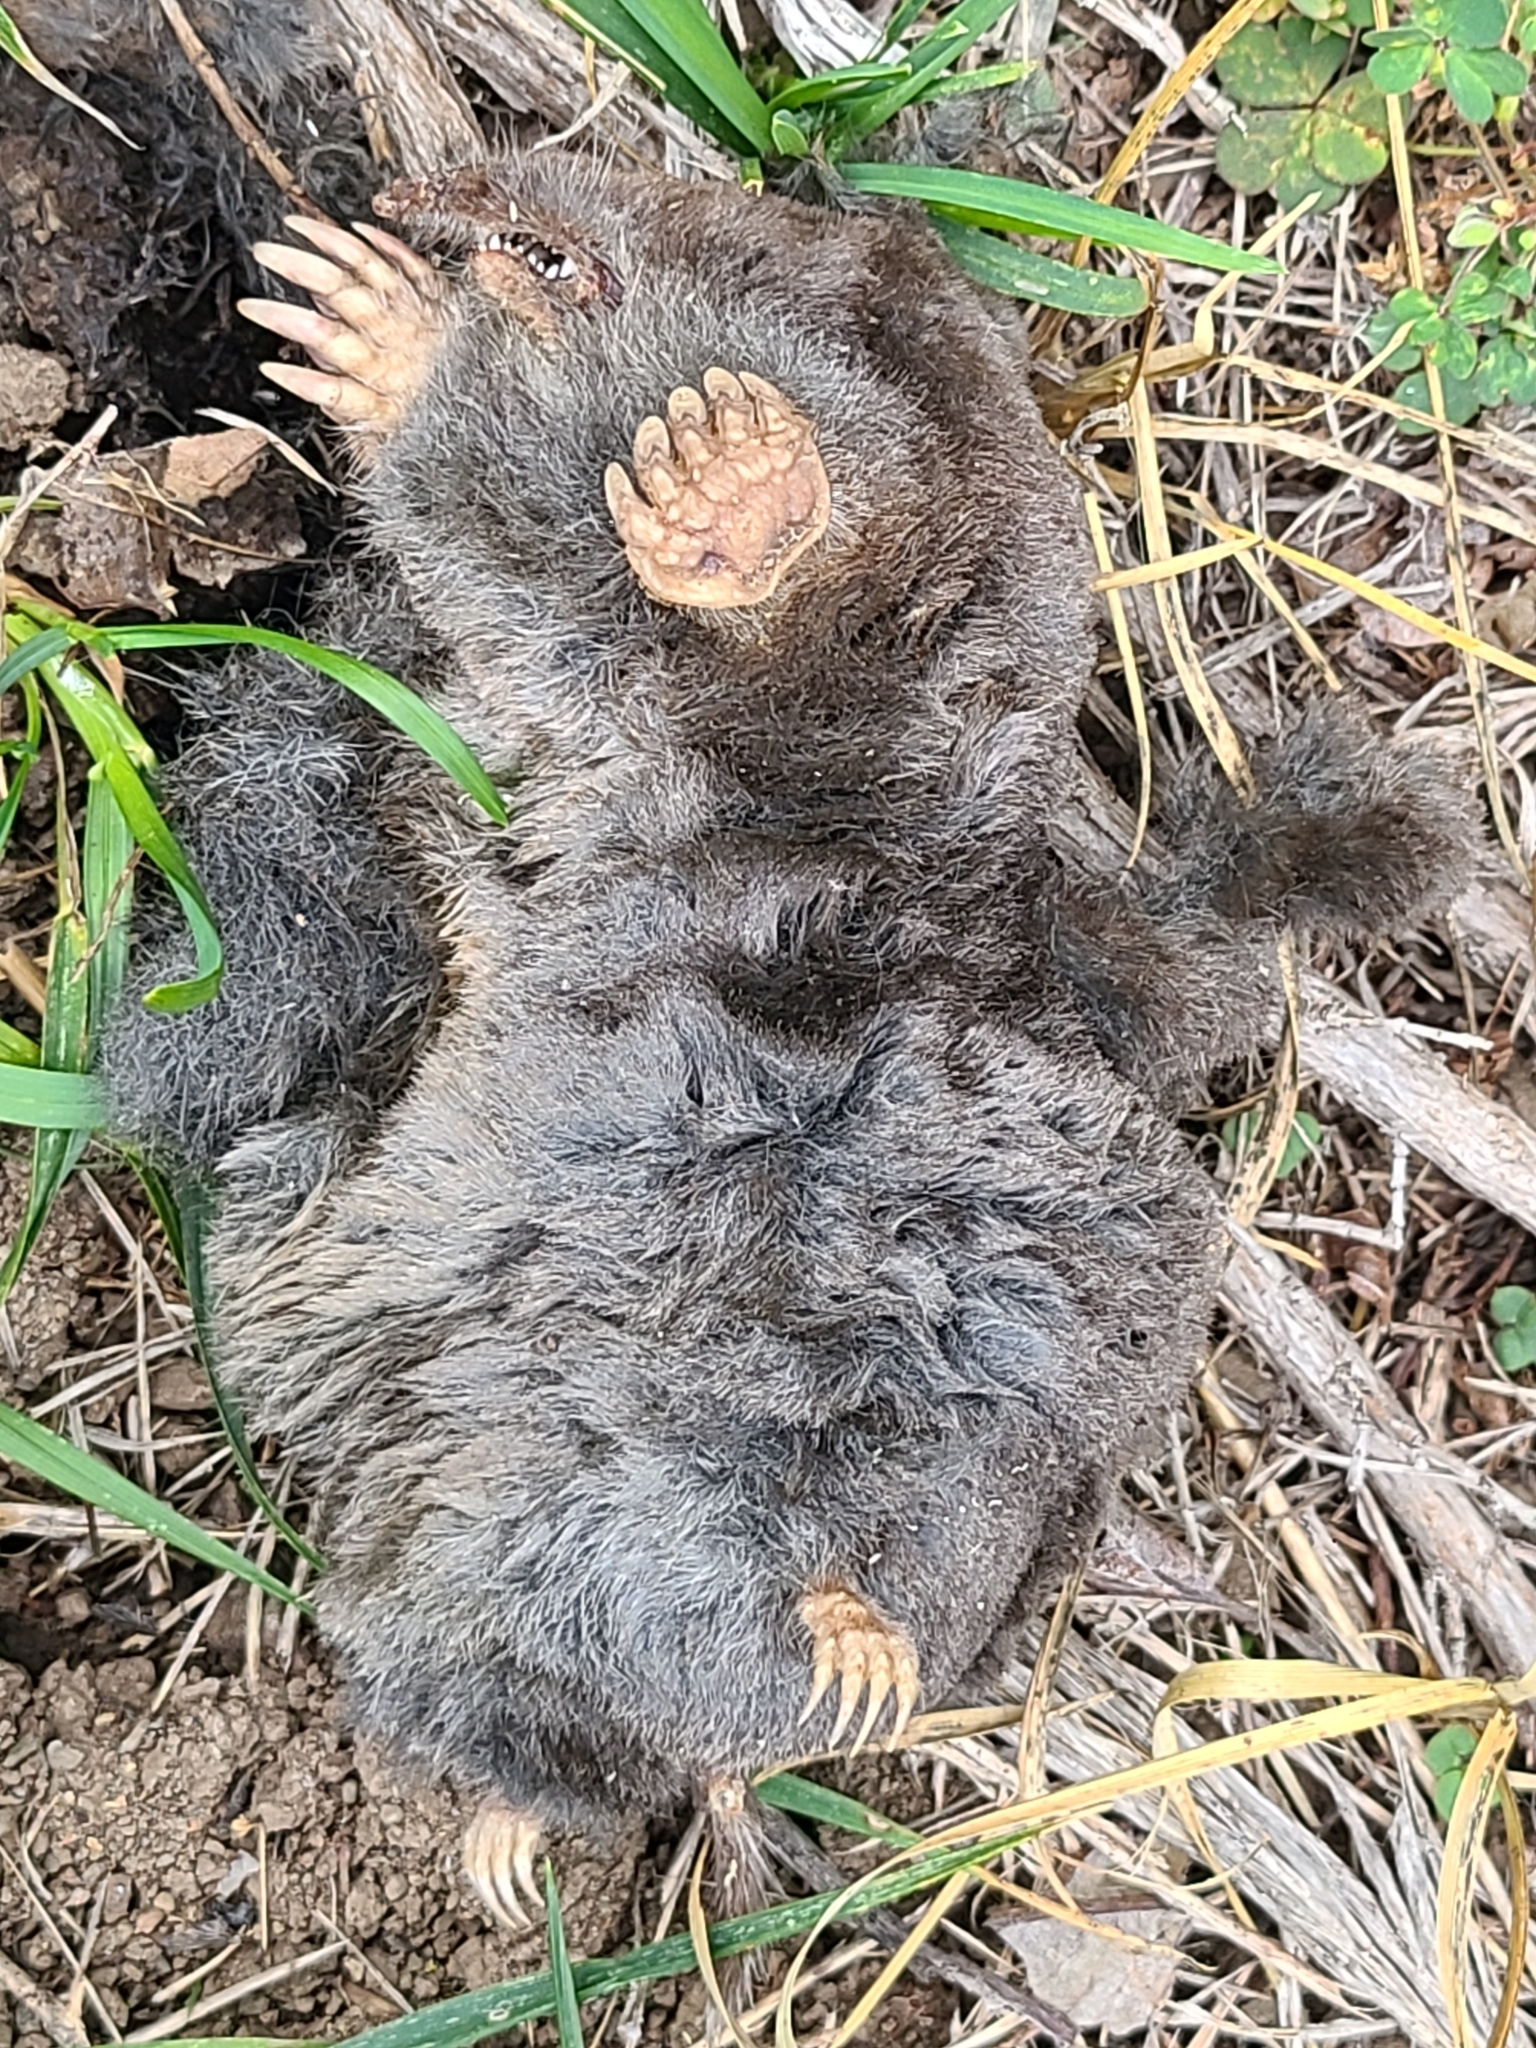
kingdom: Animalia
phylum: Chordata
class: Mammalia
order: Soricomorpha
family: Talpidae
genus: Scapanus
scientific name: Scapanus latimanus
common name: Broad-footed mole
